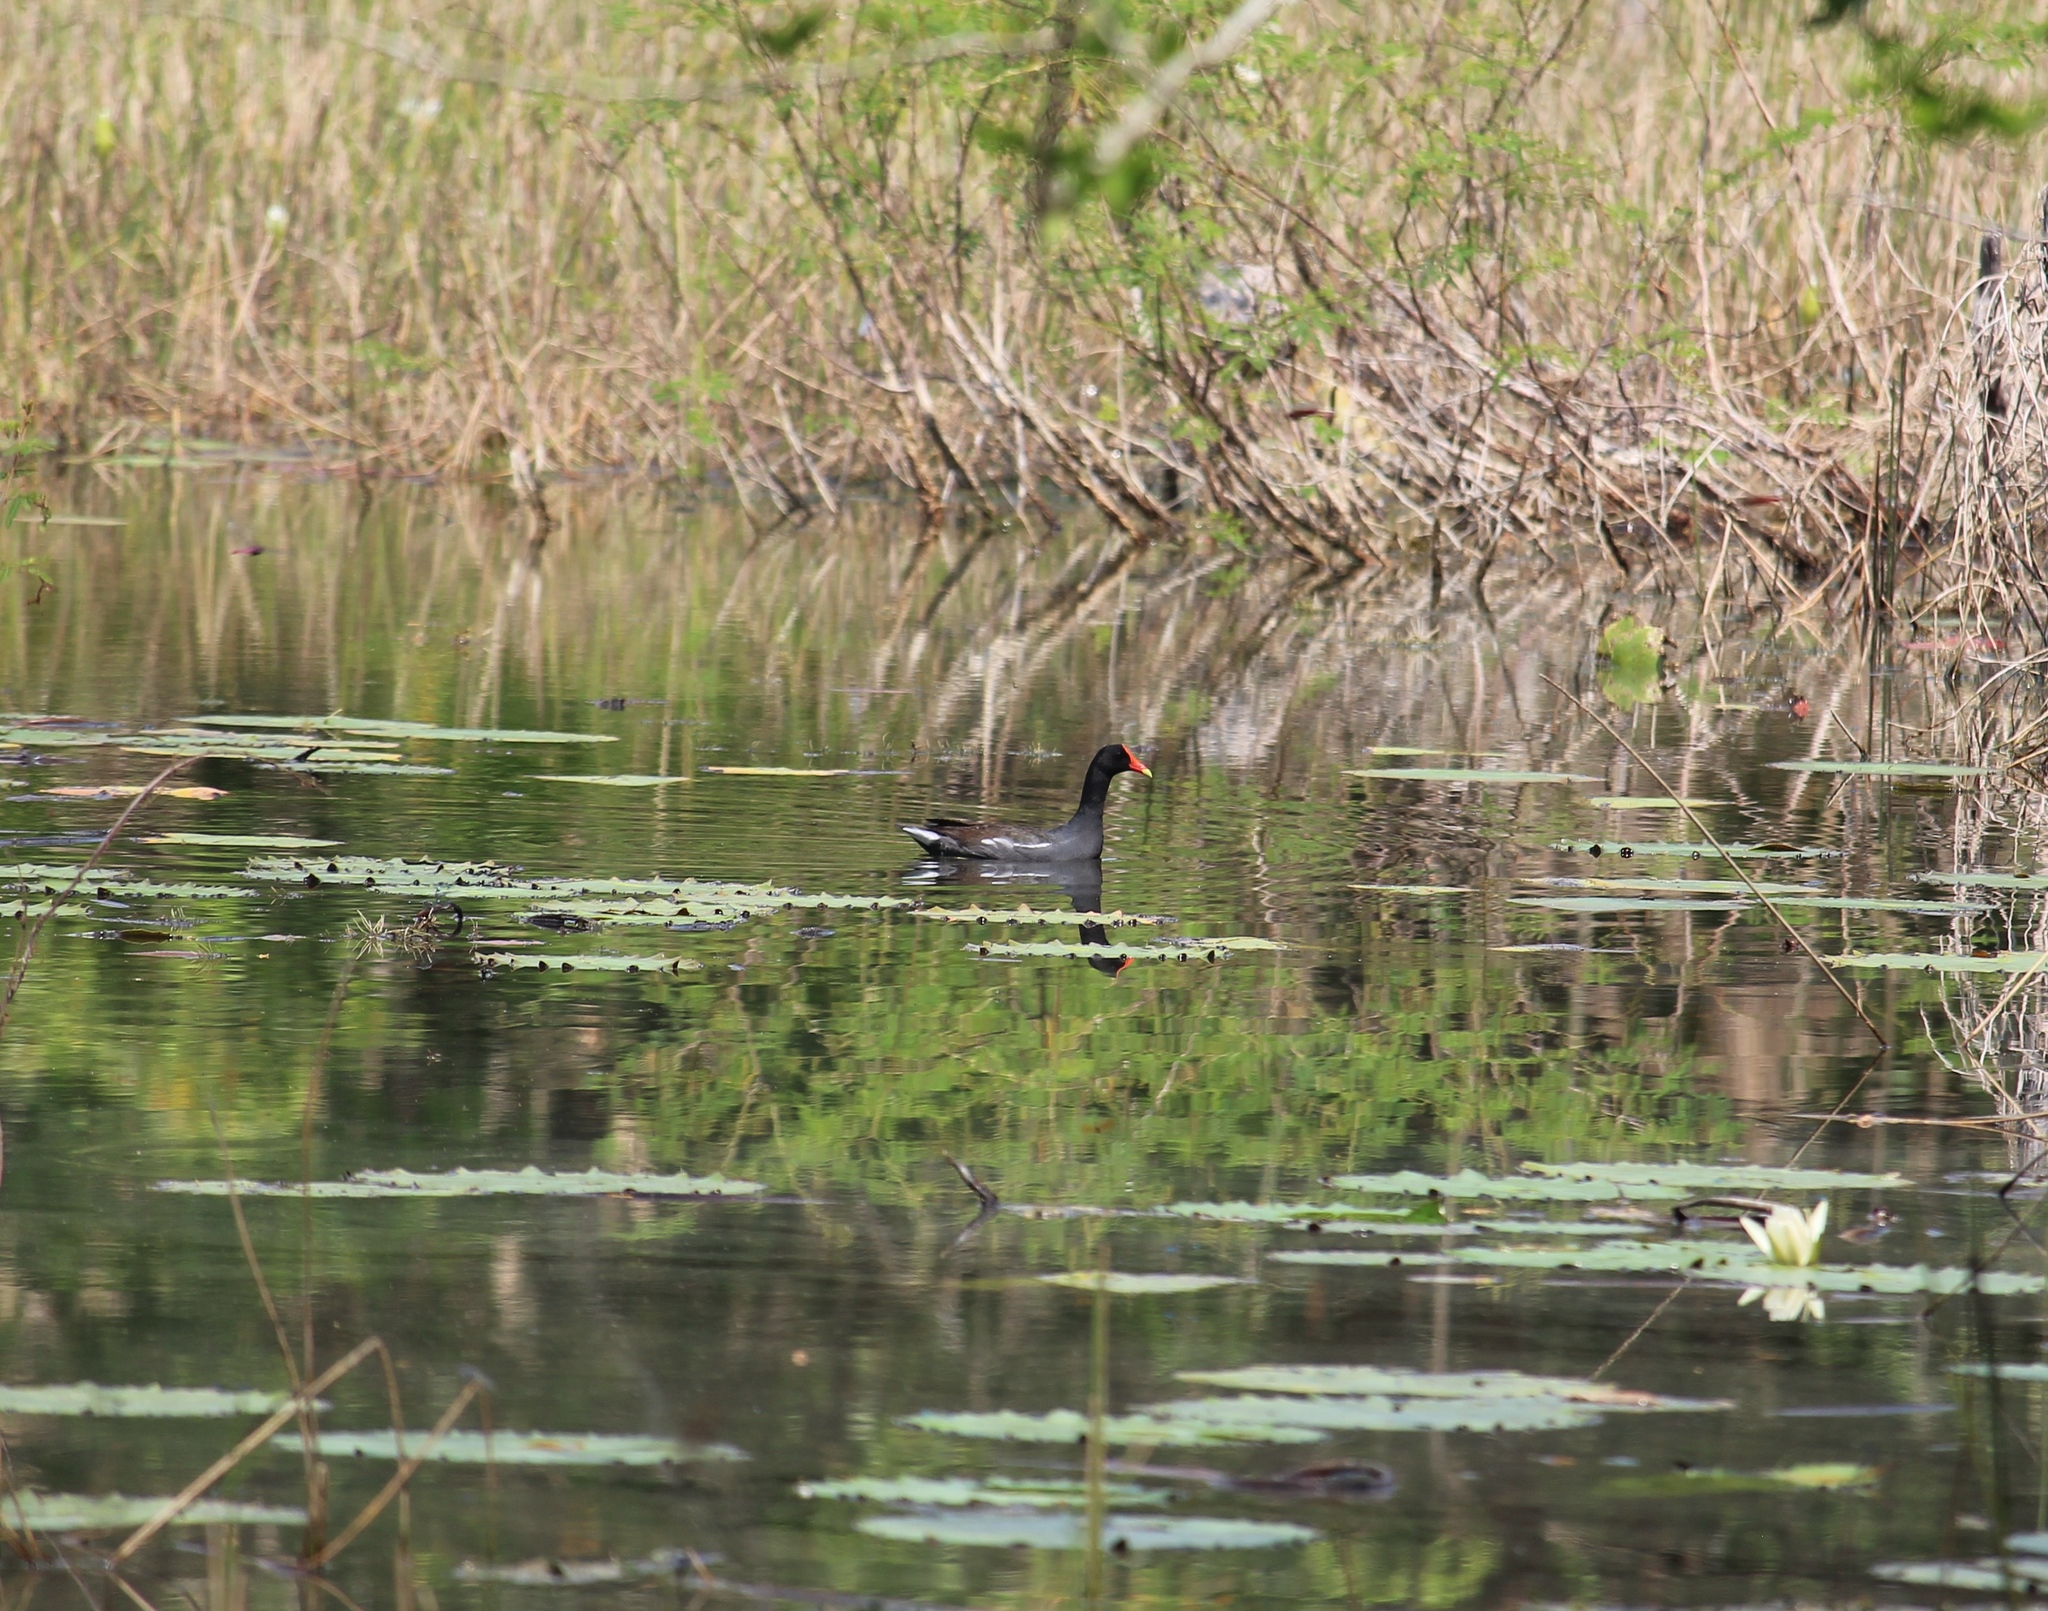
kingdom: Animalia
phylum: Chordata
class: Aves
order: Gruiformes
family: Rallidae
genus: Gallinula
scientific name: Gallinula chloropus
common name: Common moorhen
